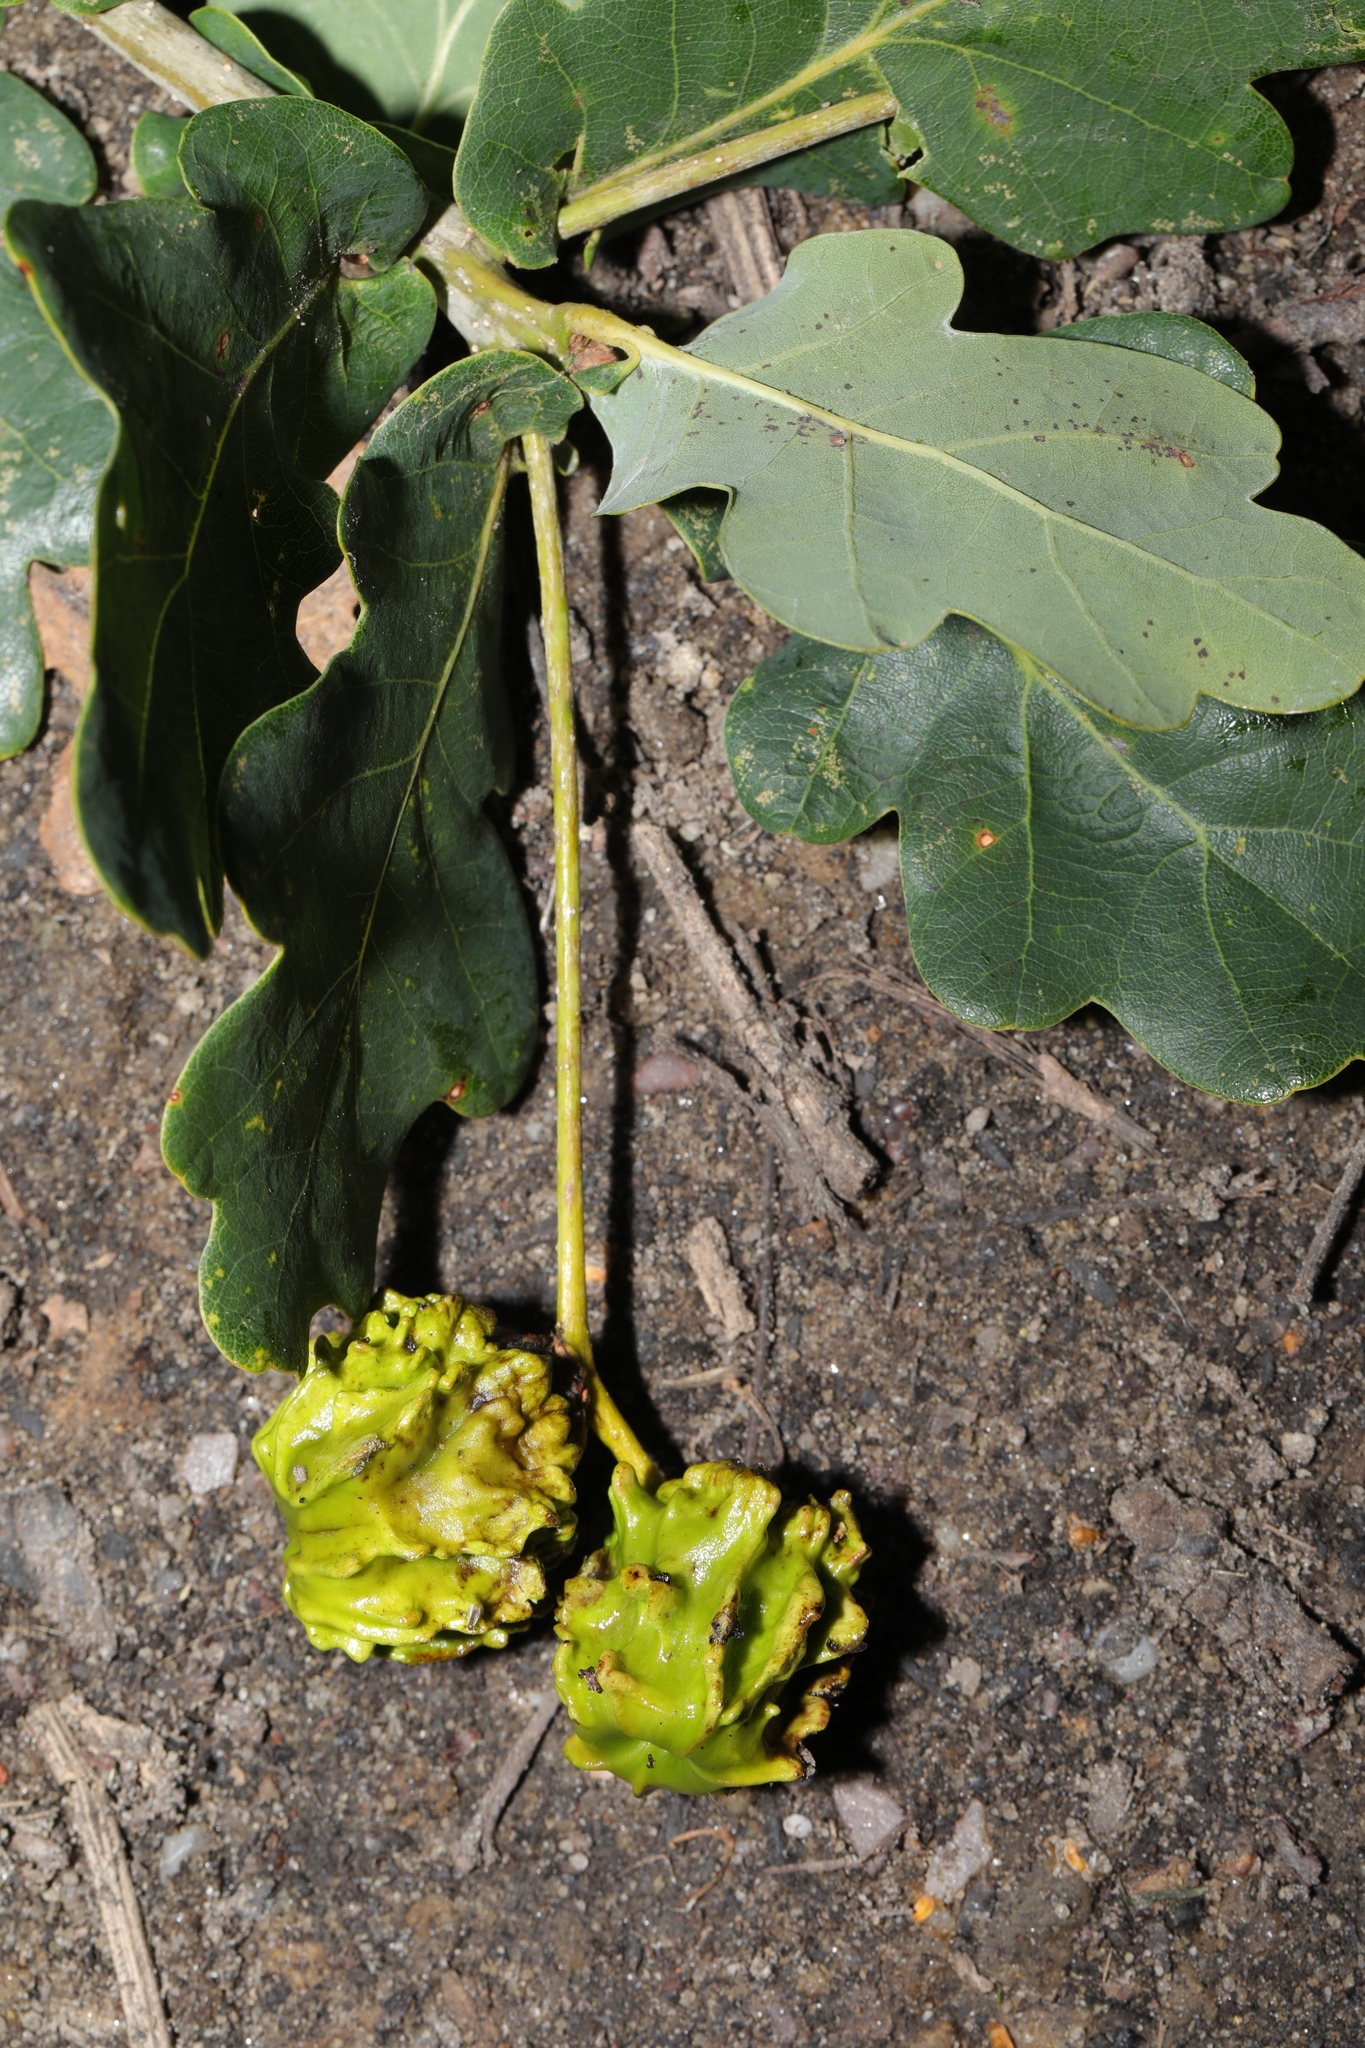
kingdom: Animalia
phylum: Arthropoda
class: Insecta
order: Hymenoptera
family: Cynipidae
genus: Andricus
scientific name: Andricus quercuscalicis
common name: Knopper gall
